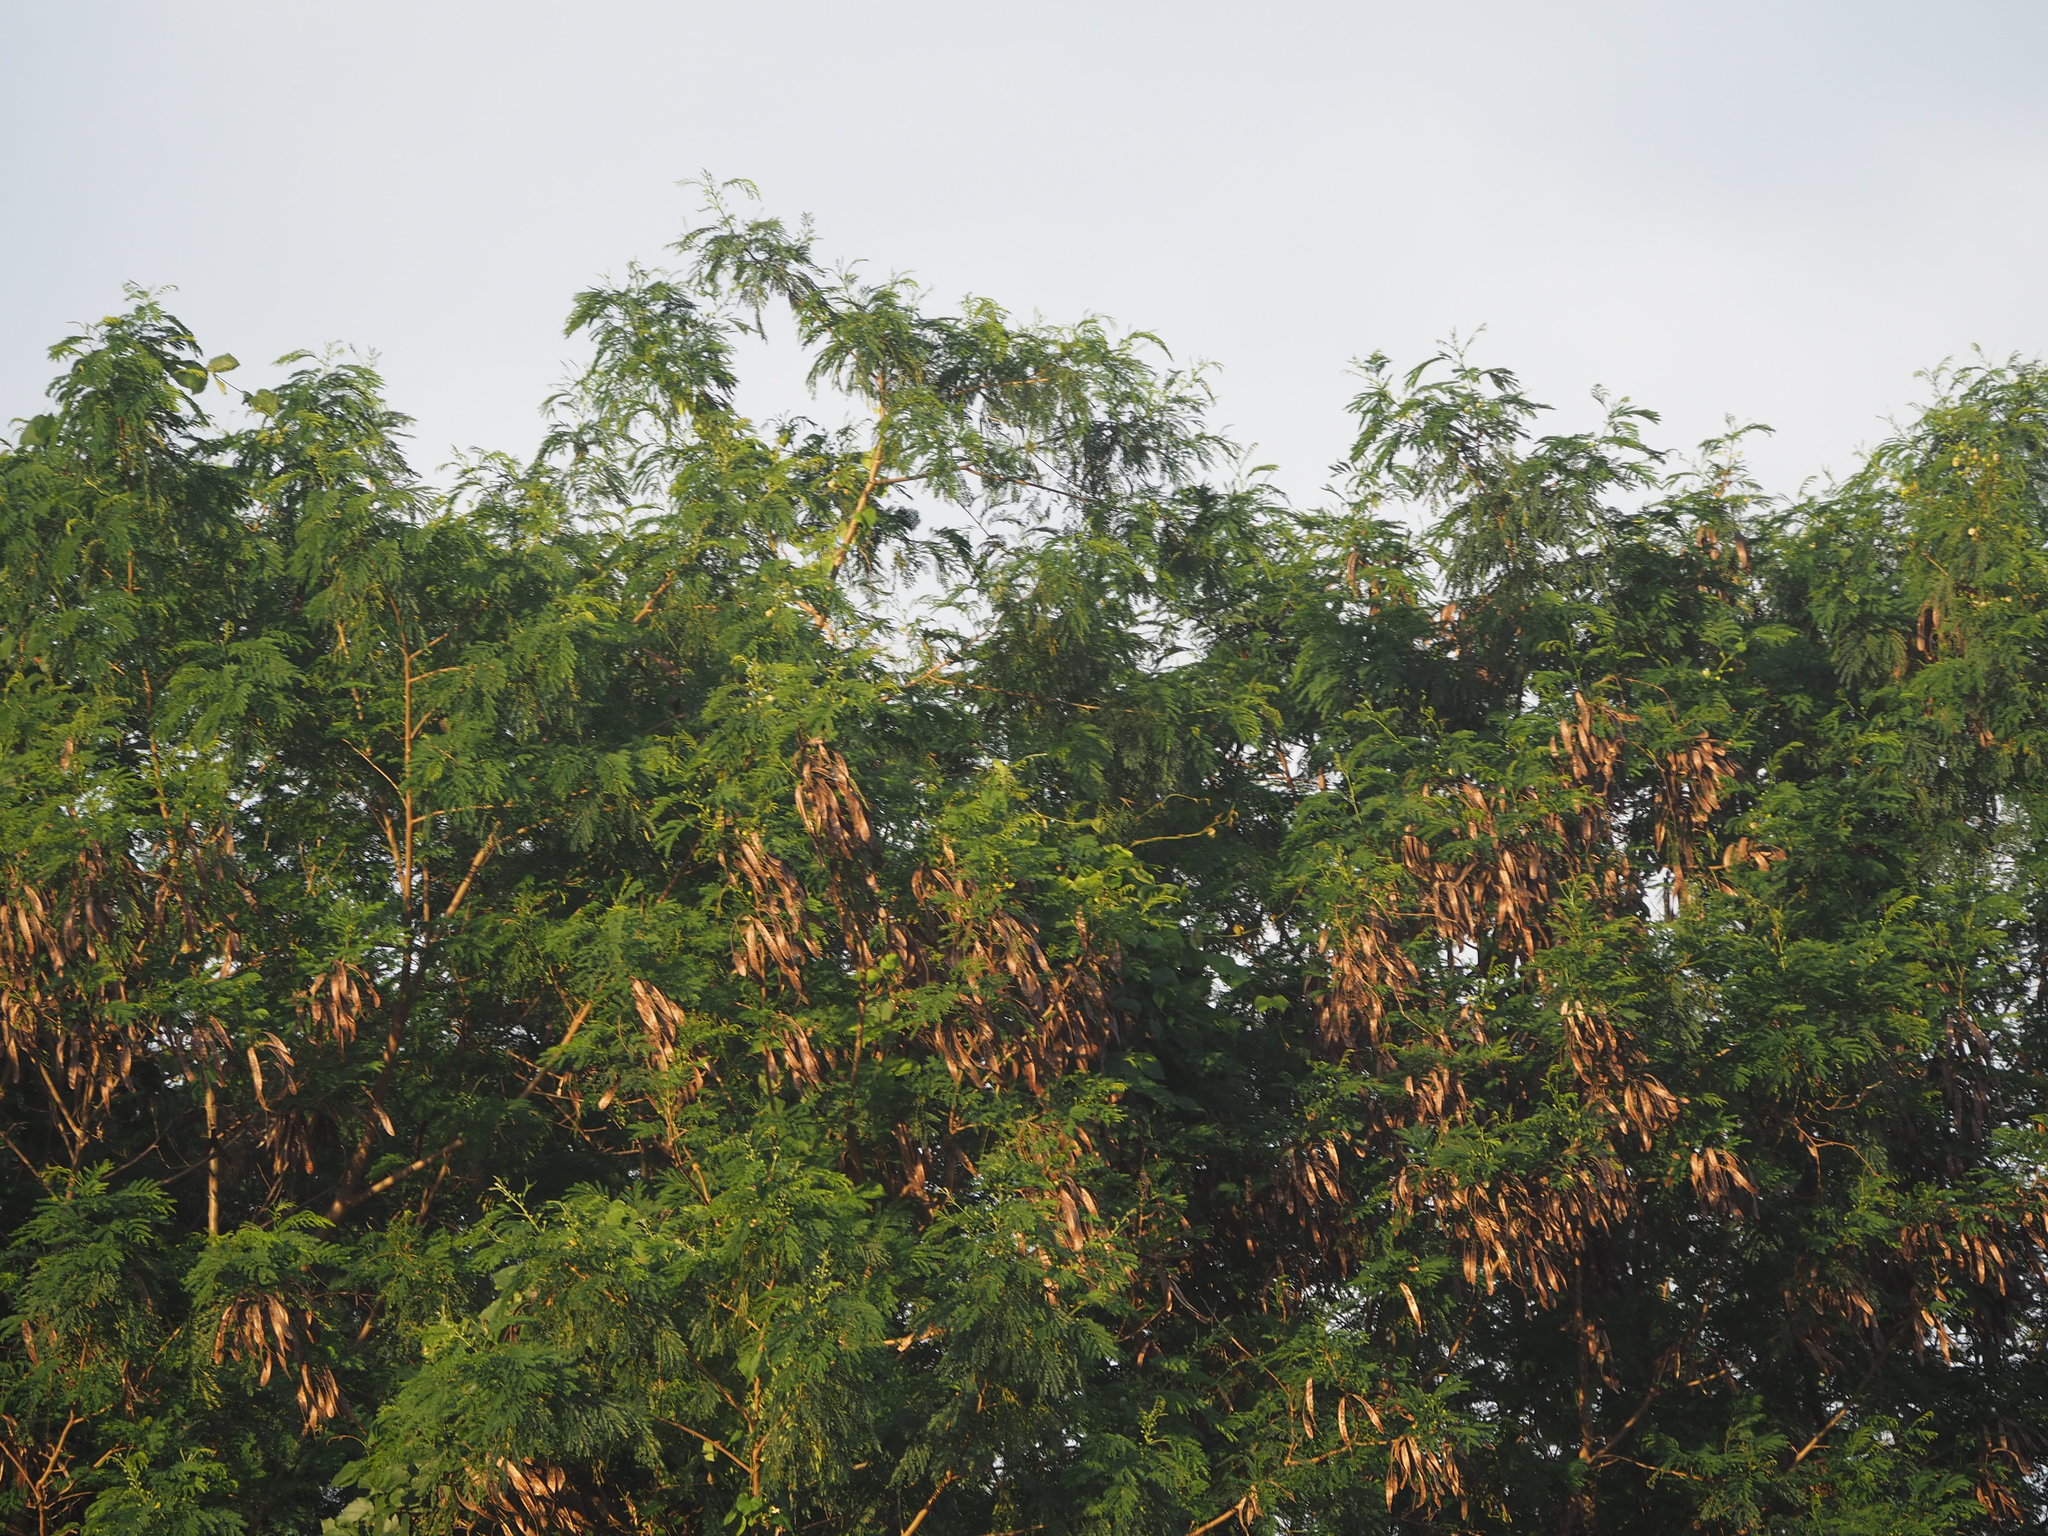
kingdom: Plantae
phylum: Tracheophyta
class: Magnoliopsida
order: Fabales
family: Fabaceae
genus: Leucaena
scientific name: Leucaena leucocephala
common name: White leadtree
